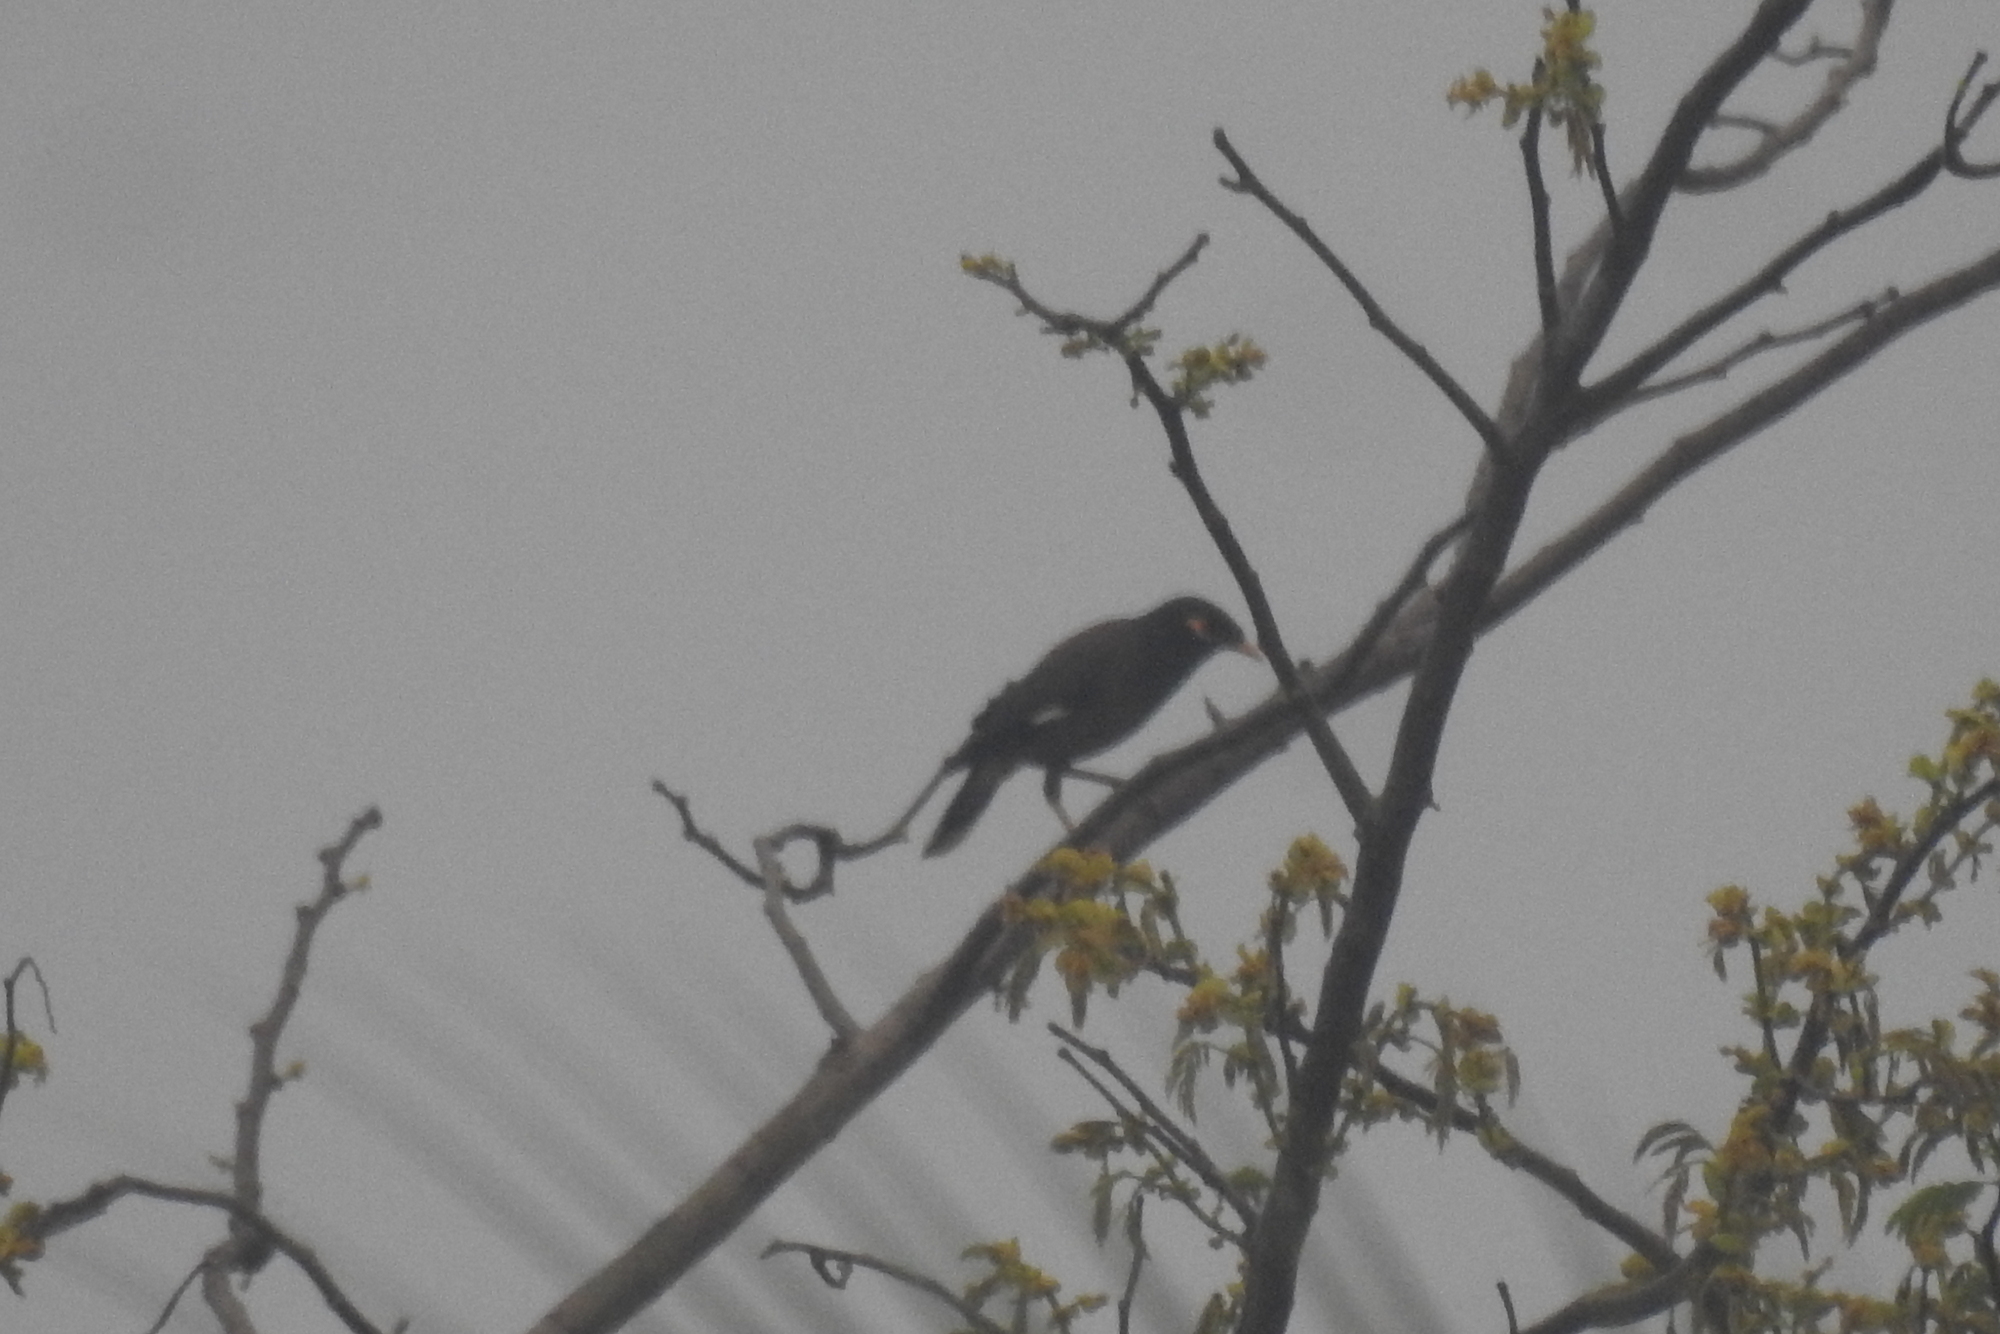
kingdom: Animalia
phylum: Chordata
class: Aves
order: Passeriformes
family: Sturnidae
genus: Acridotheres
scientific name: Acridotheres tristis
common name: Common myna
